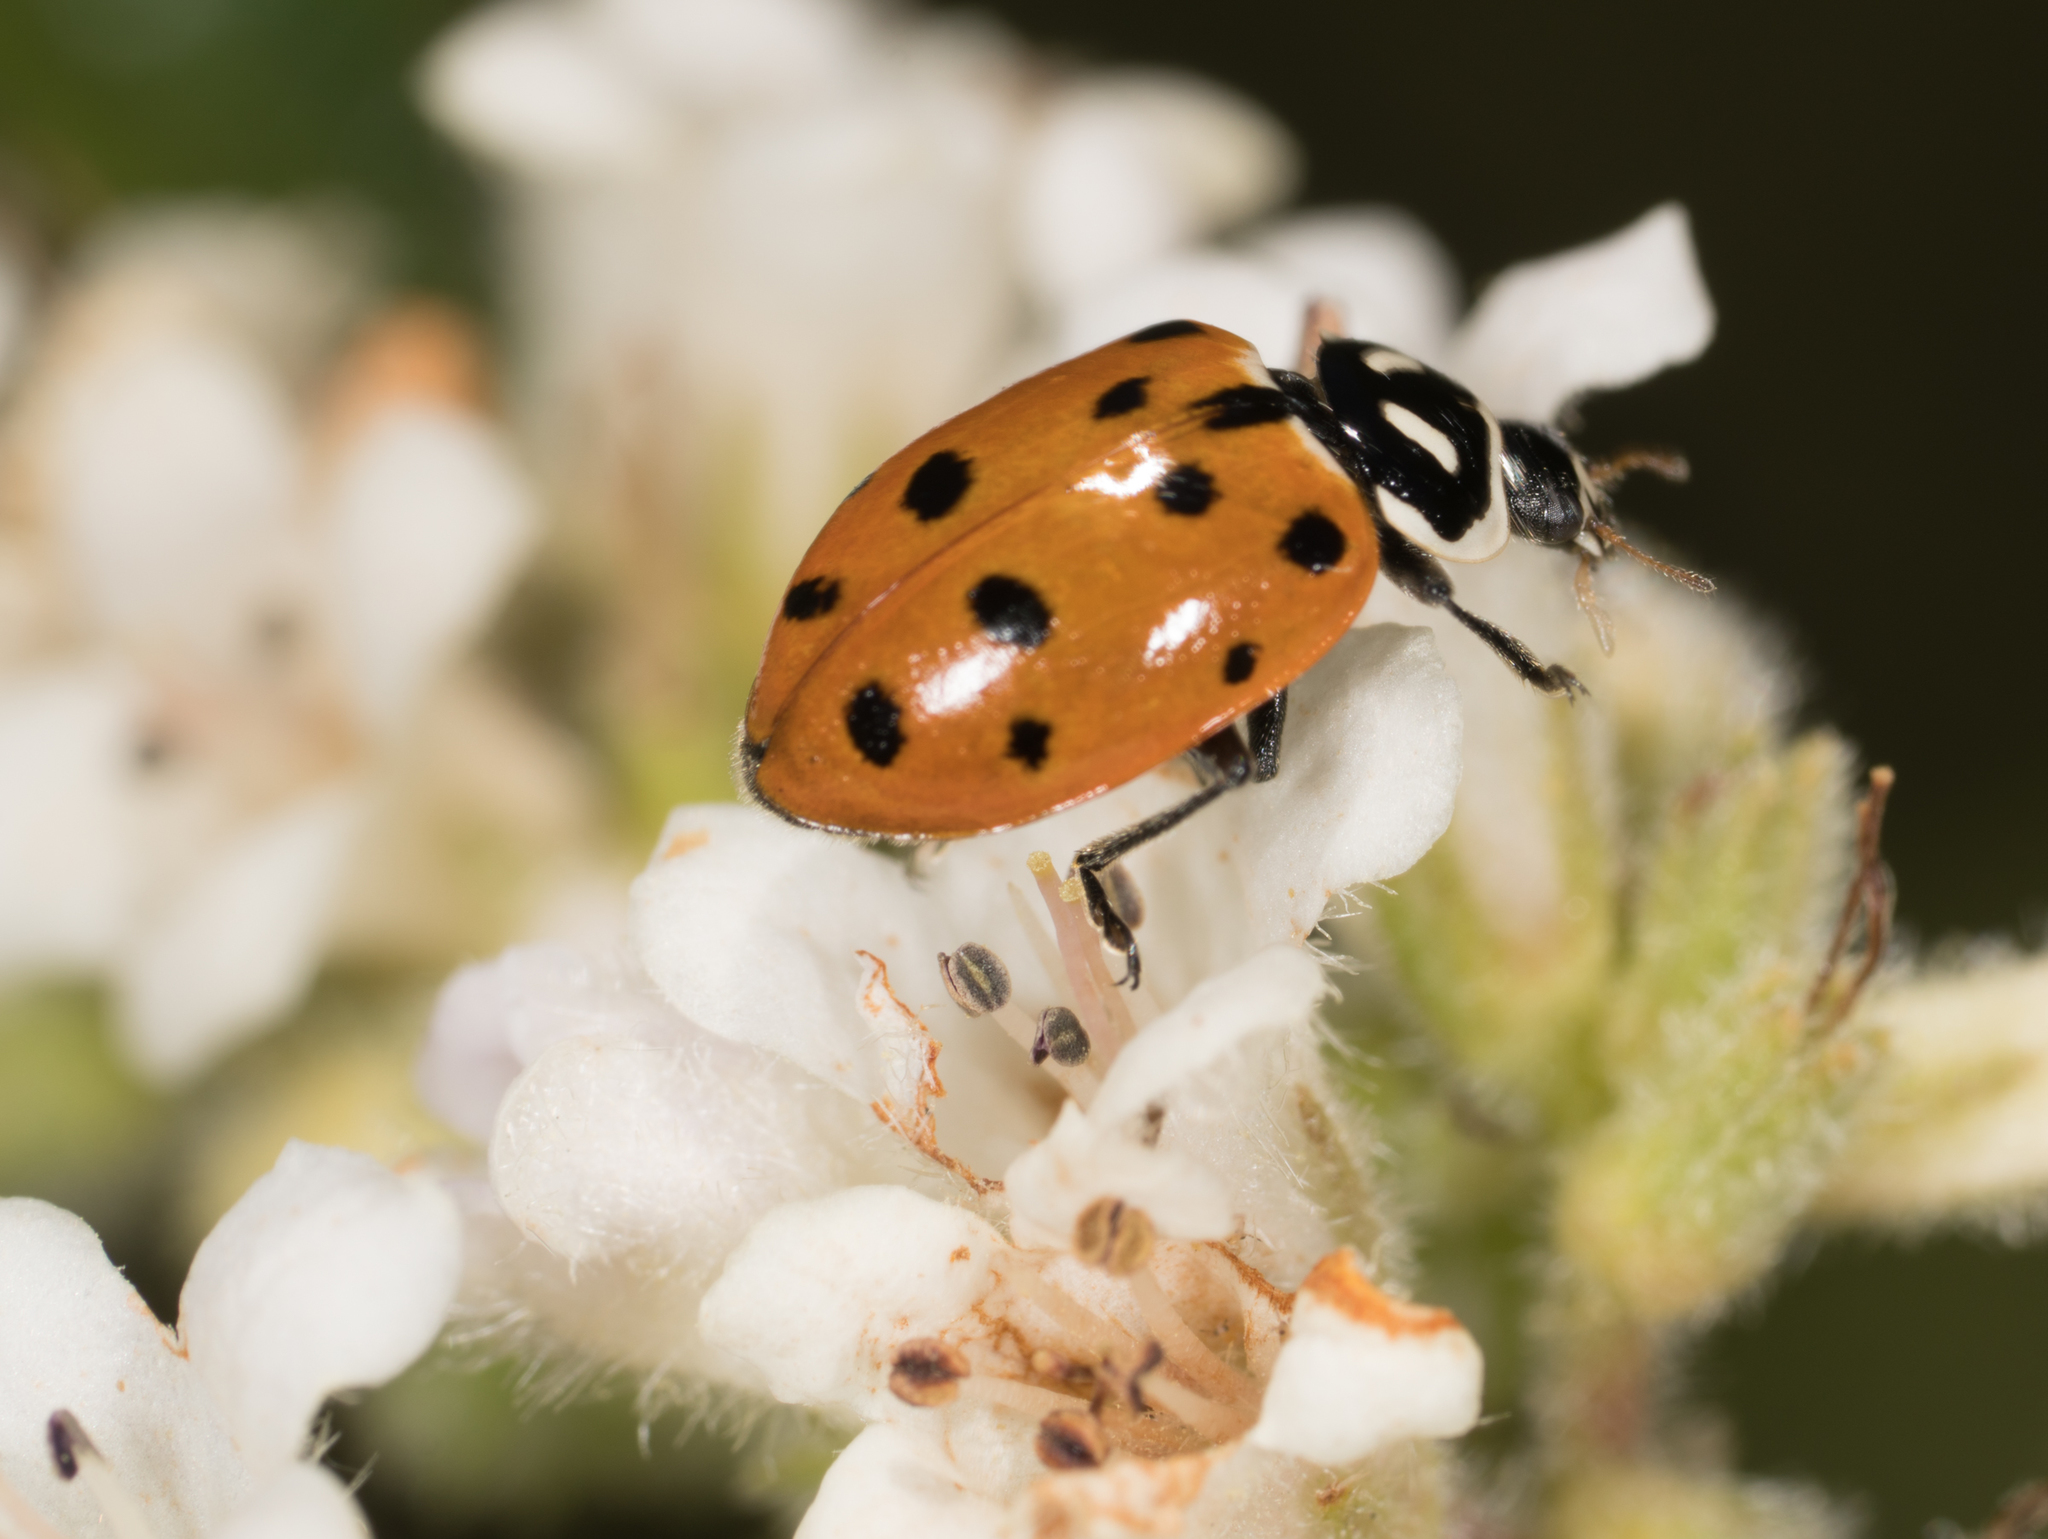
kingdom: Animalia
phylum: Arthropoda
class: Insecta
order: Coleoptera
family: Coccinellidae
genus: Hippodamia
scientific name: Hippodamia convergens
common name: Convergent lady beetle
